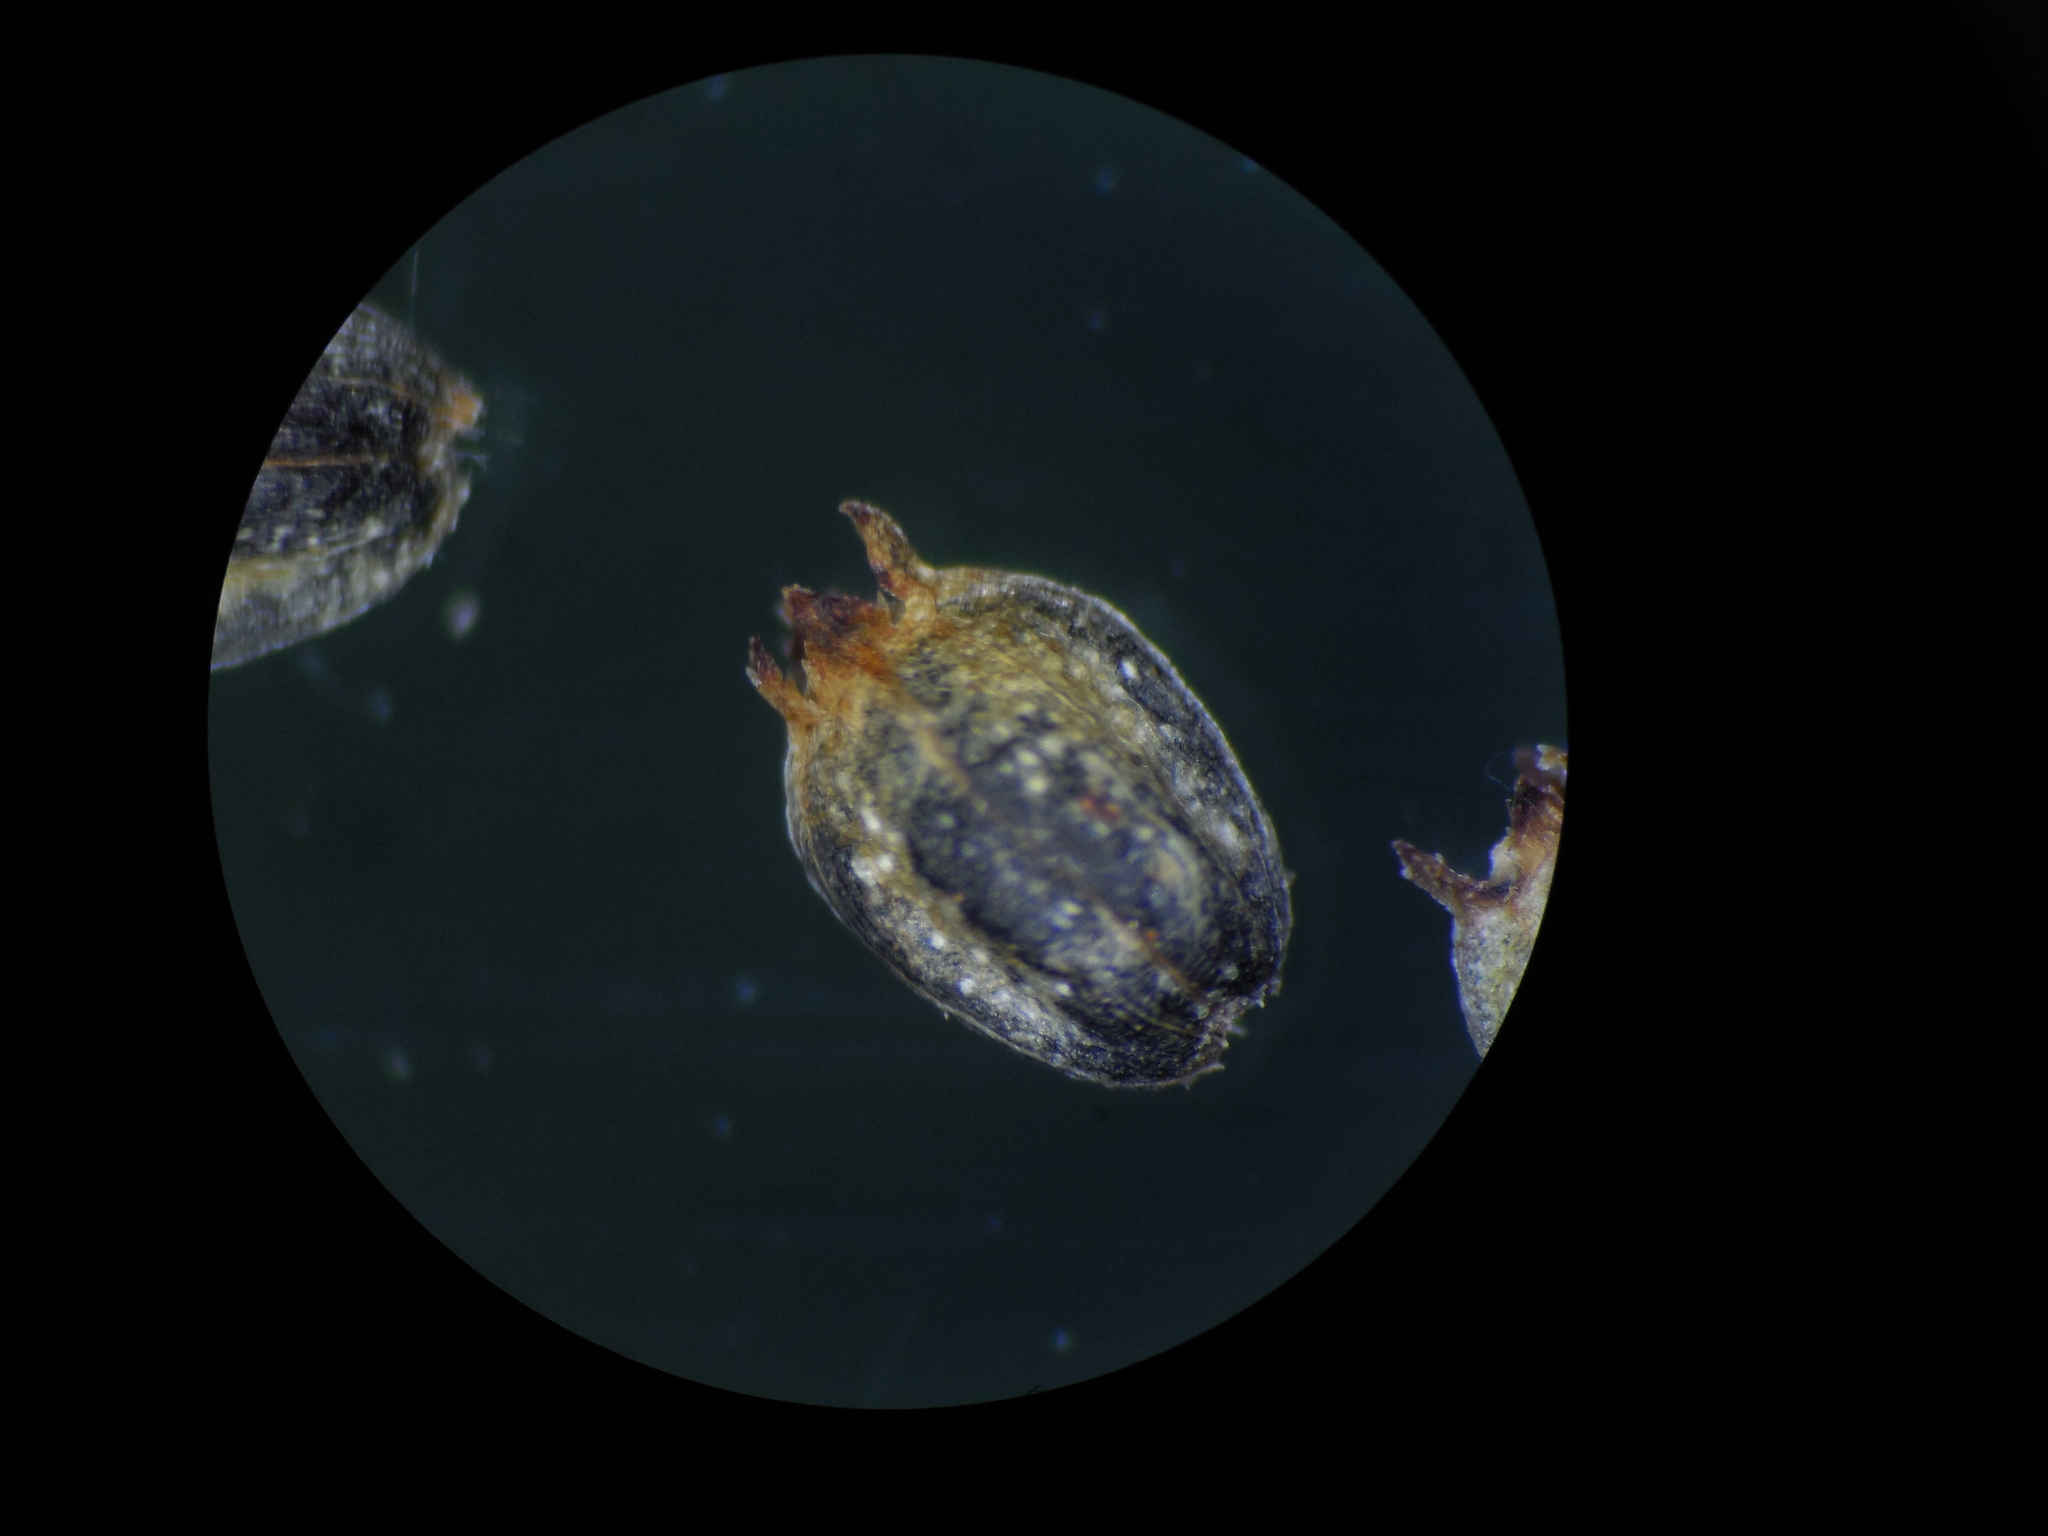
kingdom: Plantae
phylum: Tracheophyta
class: Magnoliopsida
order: Gentianales
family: Rubiaceae
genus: Knoxia
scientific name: Knoxia sumatrensis
